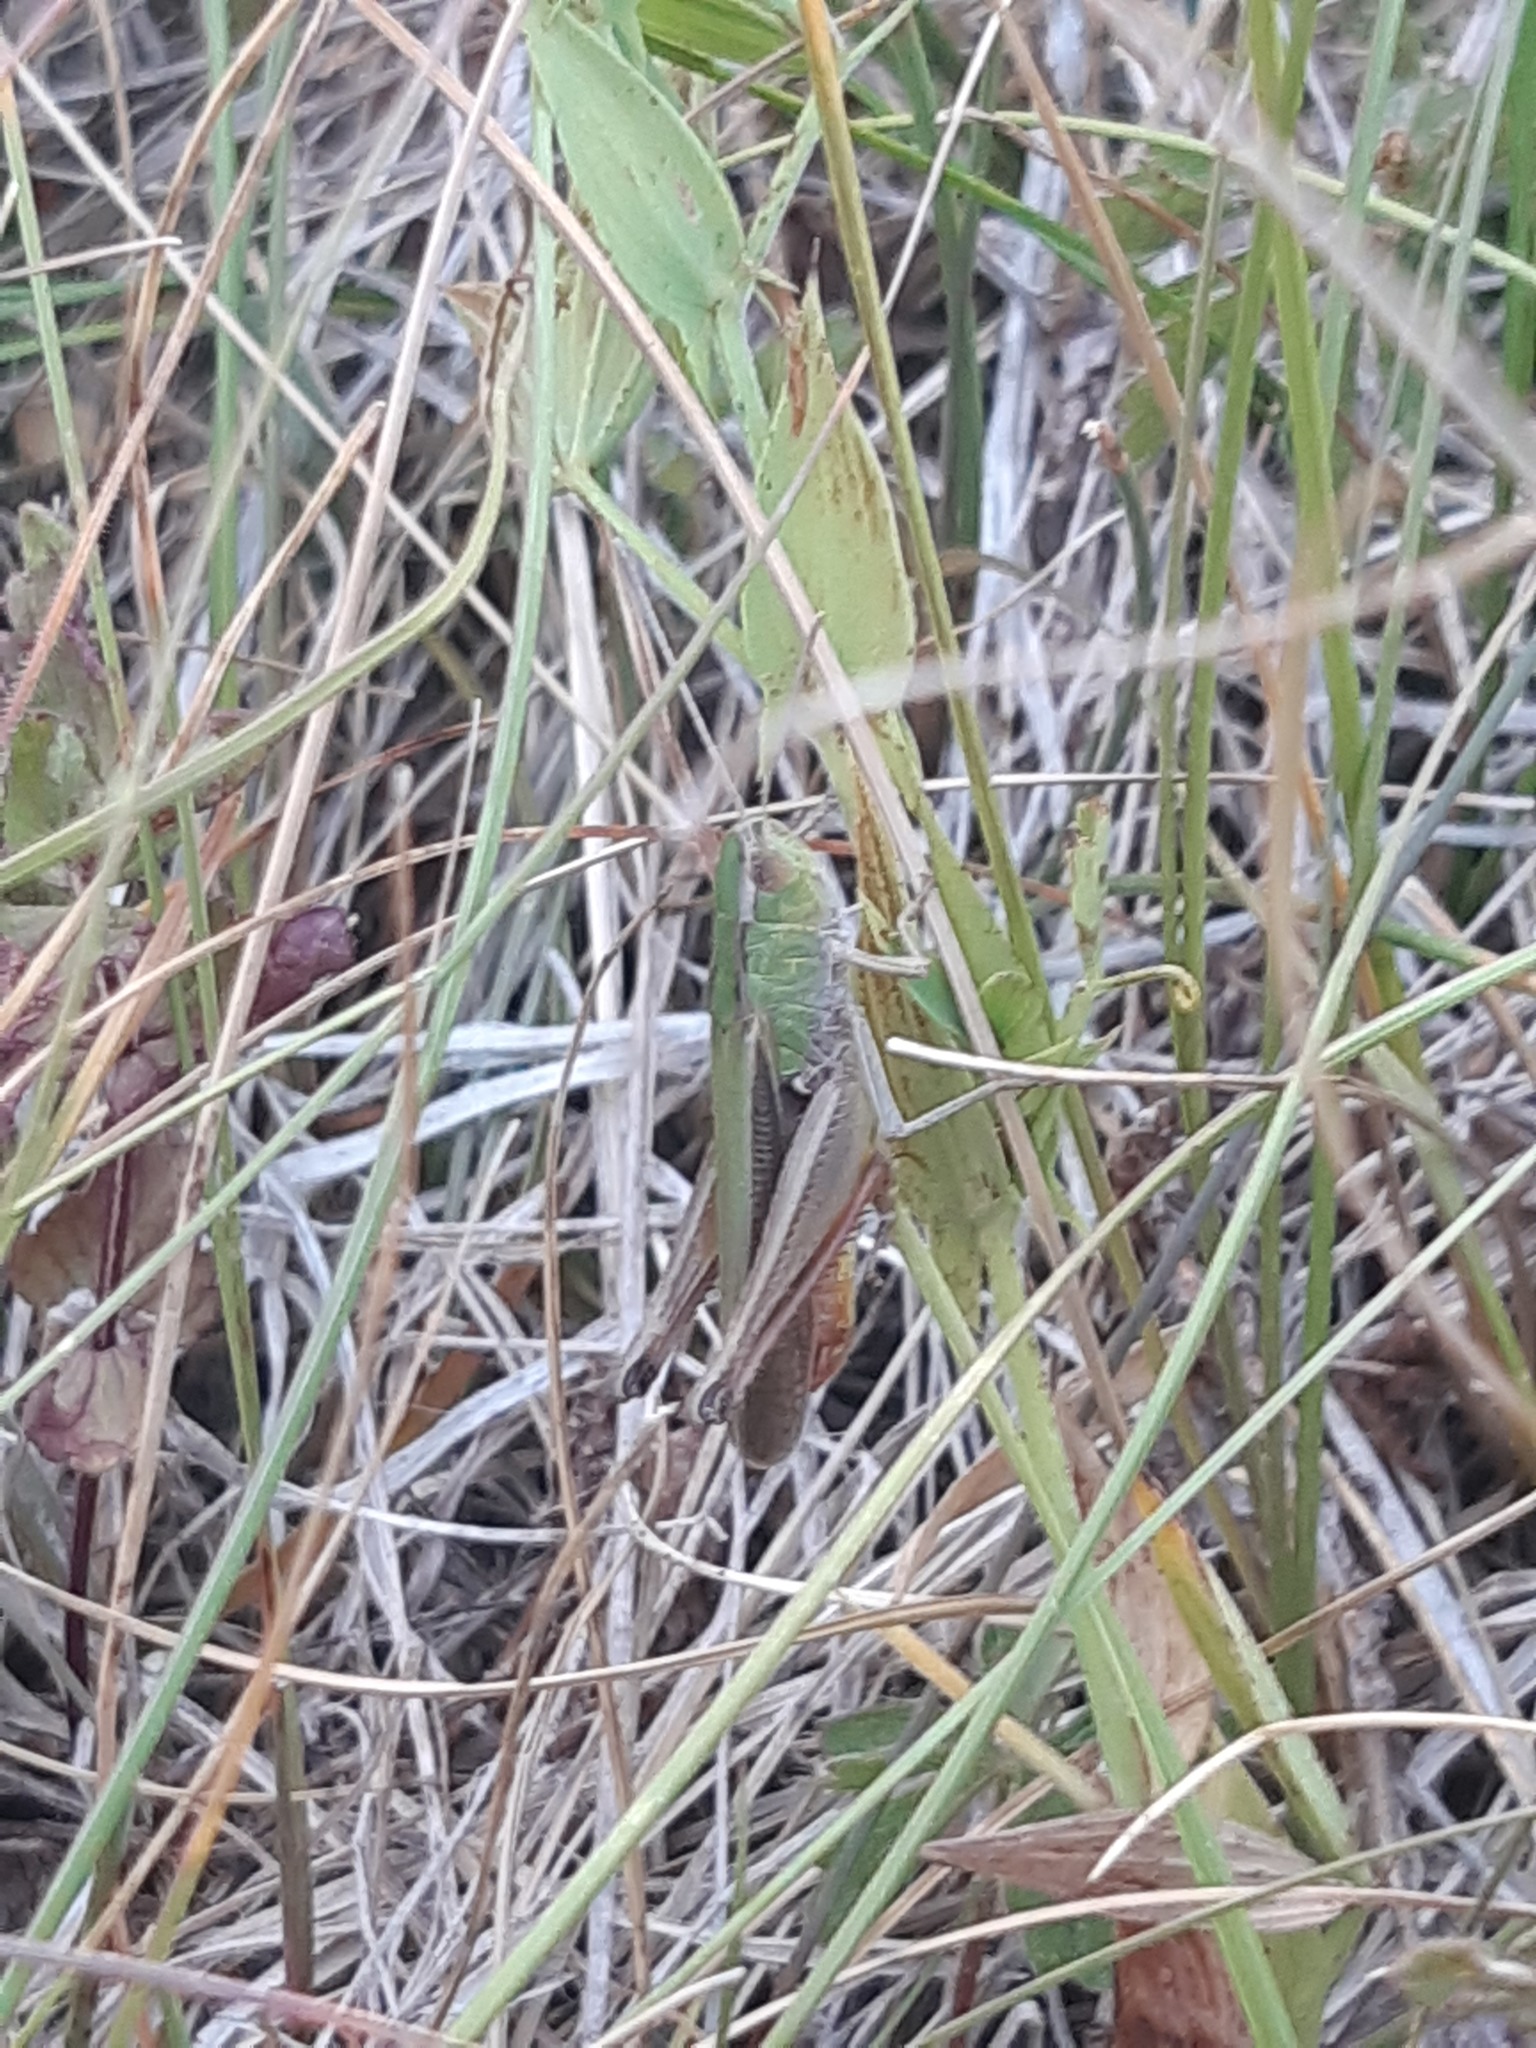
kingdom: Animalia
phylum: Arthropoda
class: Insecta
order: Orthoptera
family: Acrididae
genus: Stenobothrus
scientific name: Stenobothrus lineatus
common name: Stripe-winged grasshopper
